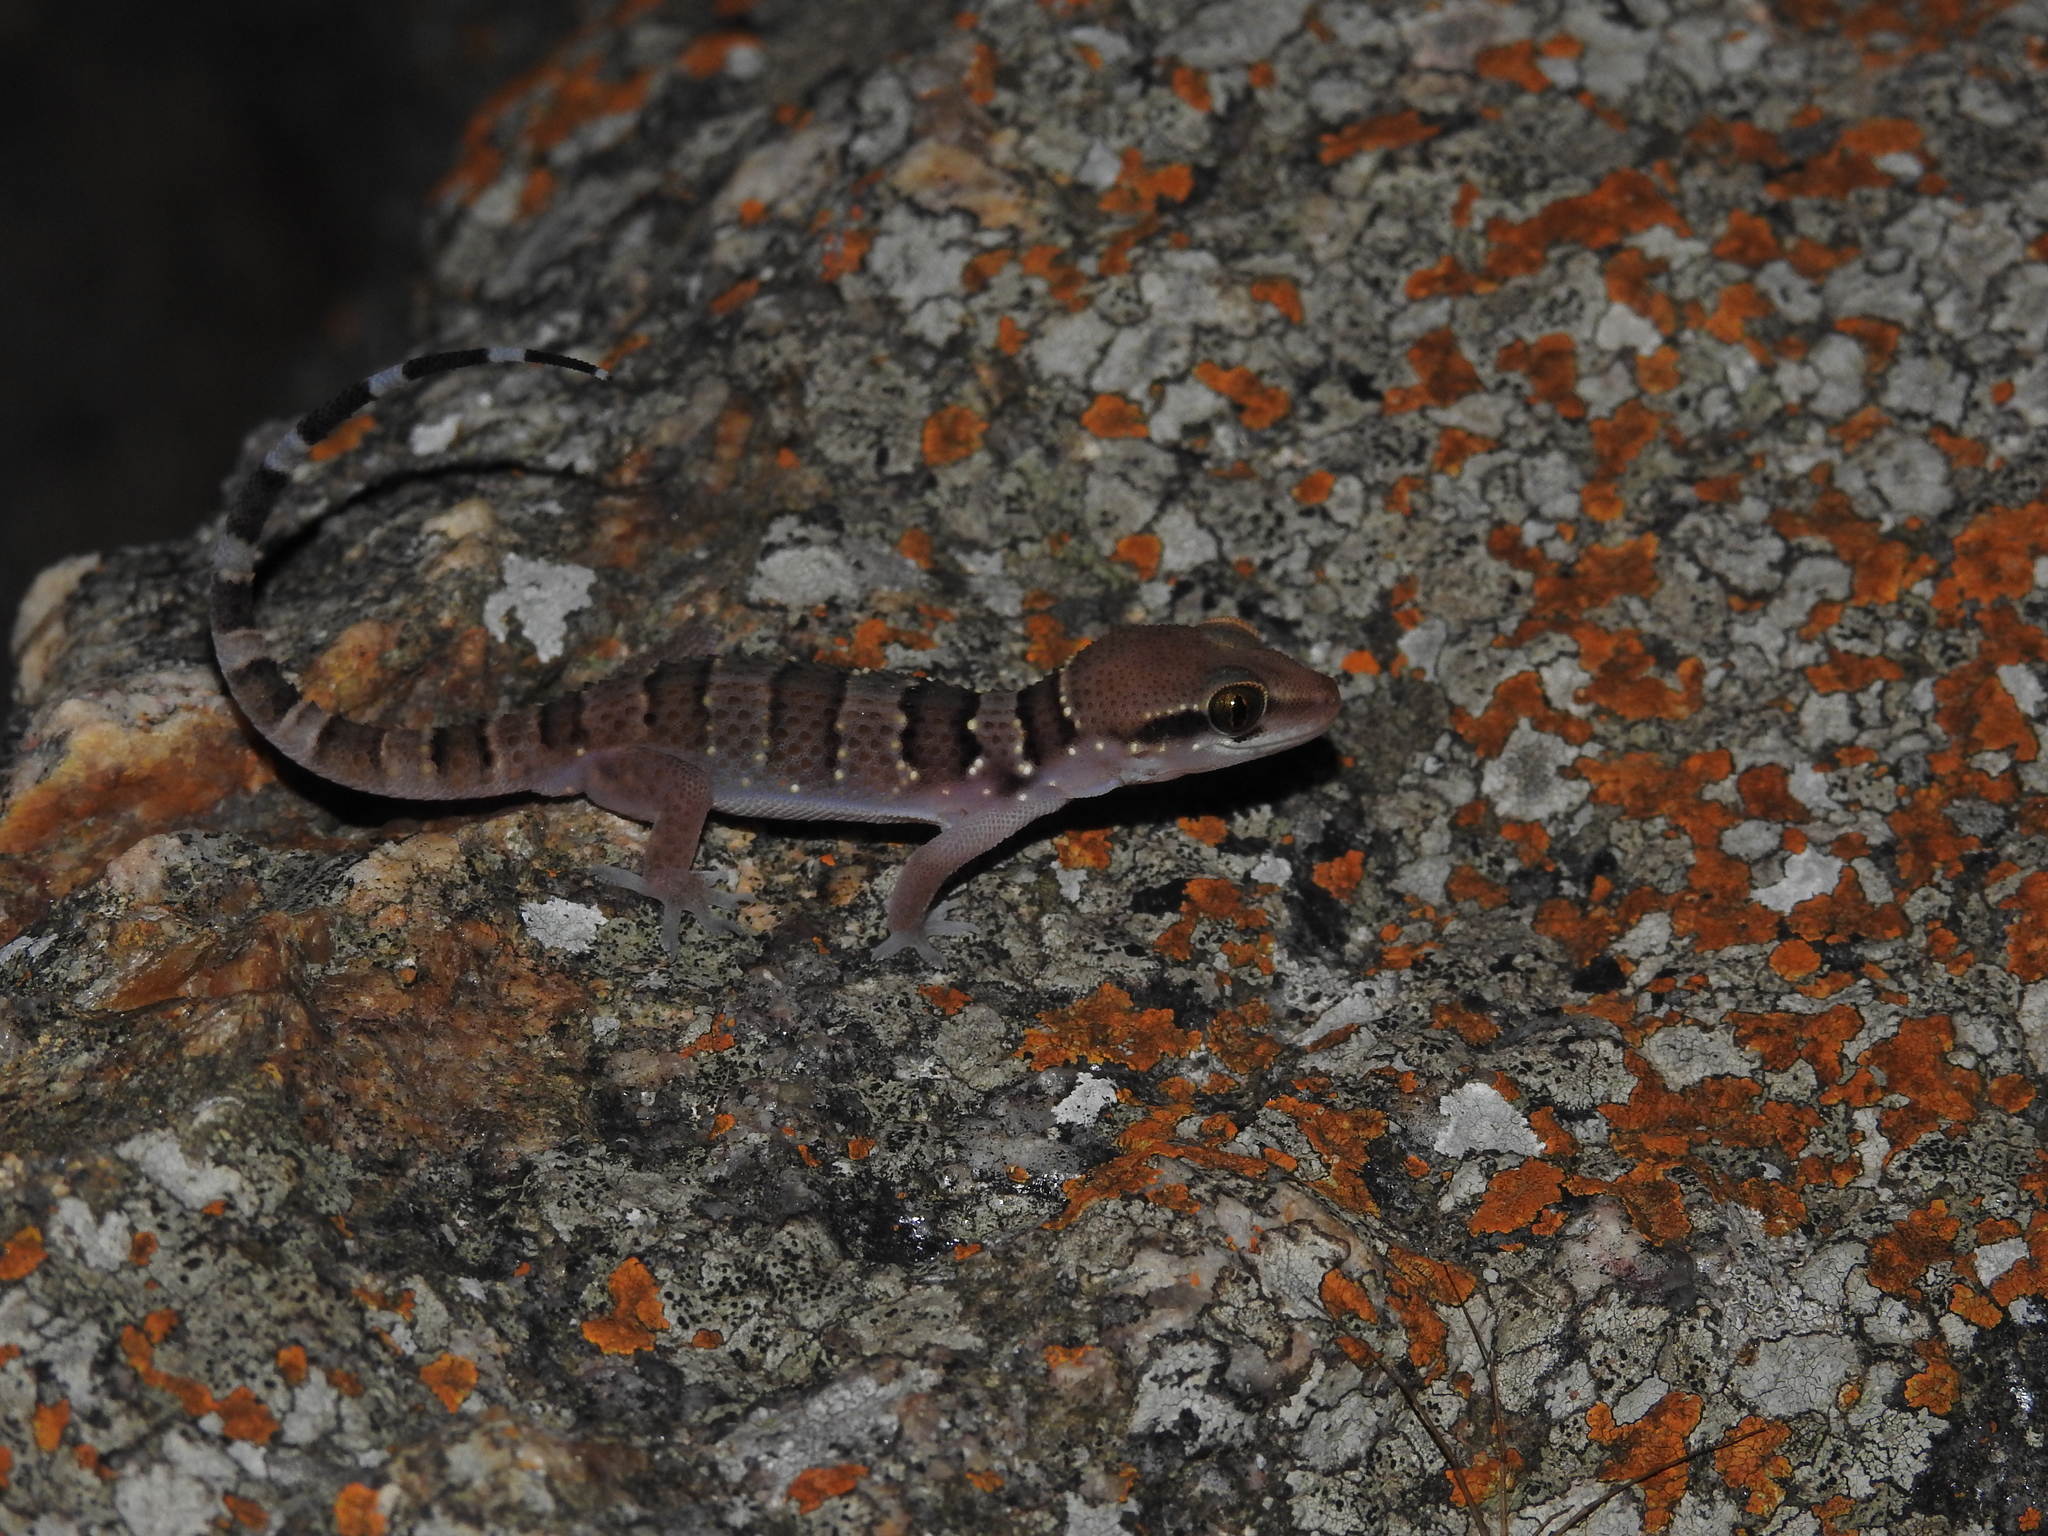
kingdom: Animalia
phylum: Chordata
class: Squamata
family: Gekkonidae
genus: Hemidactylus
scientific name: Hemidactylus whitakeri
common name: Whitaker’s termite hill gecko
